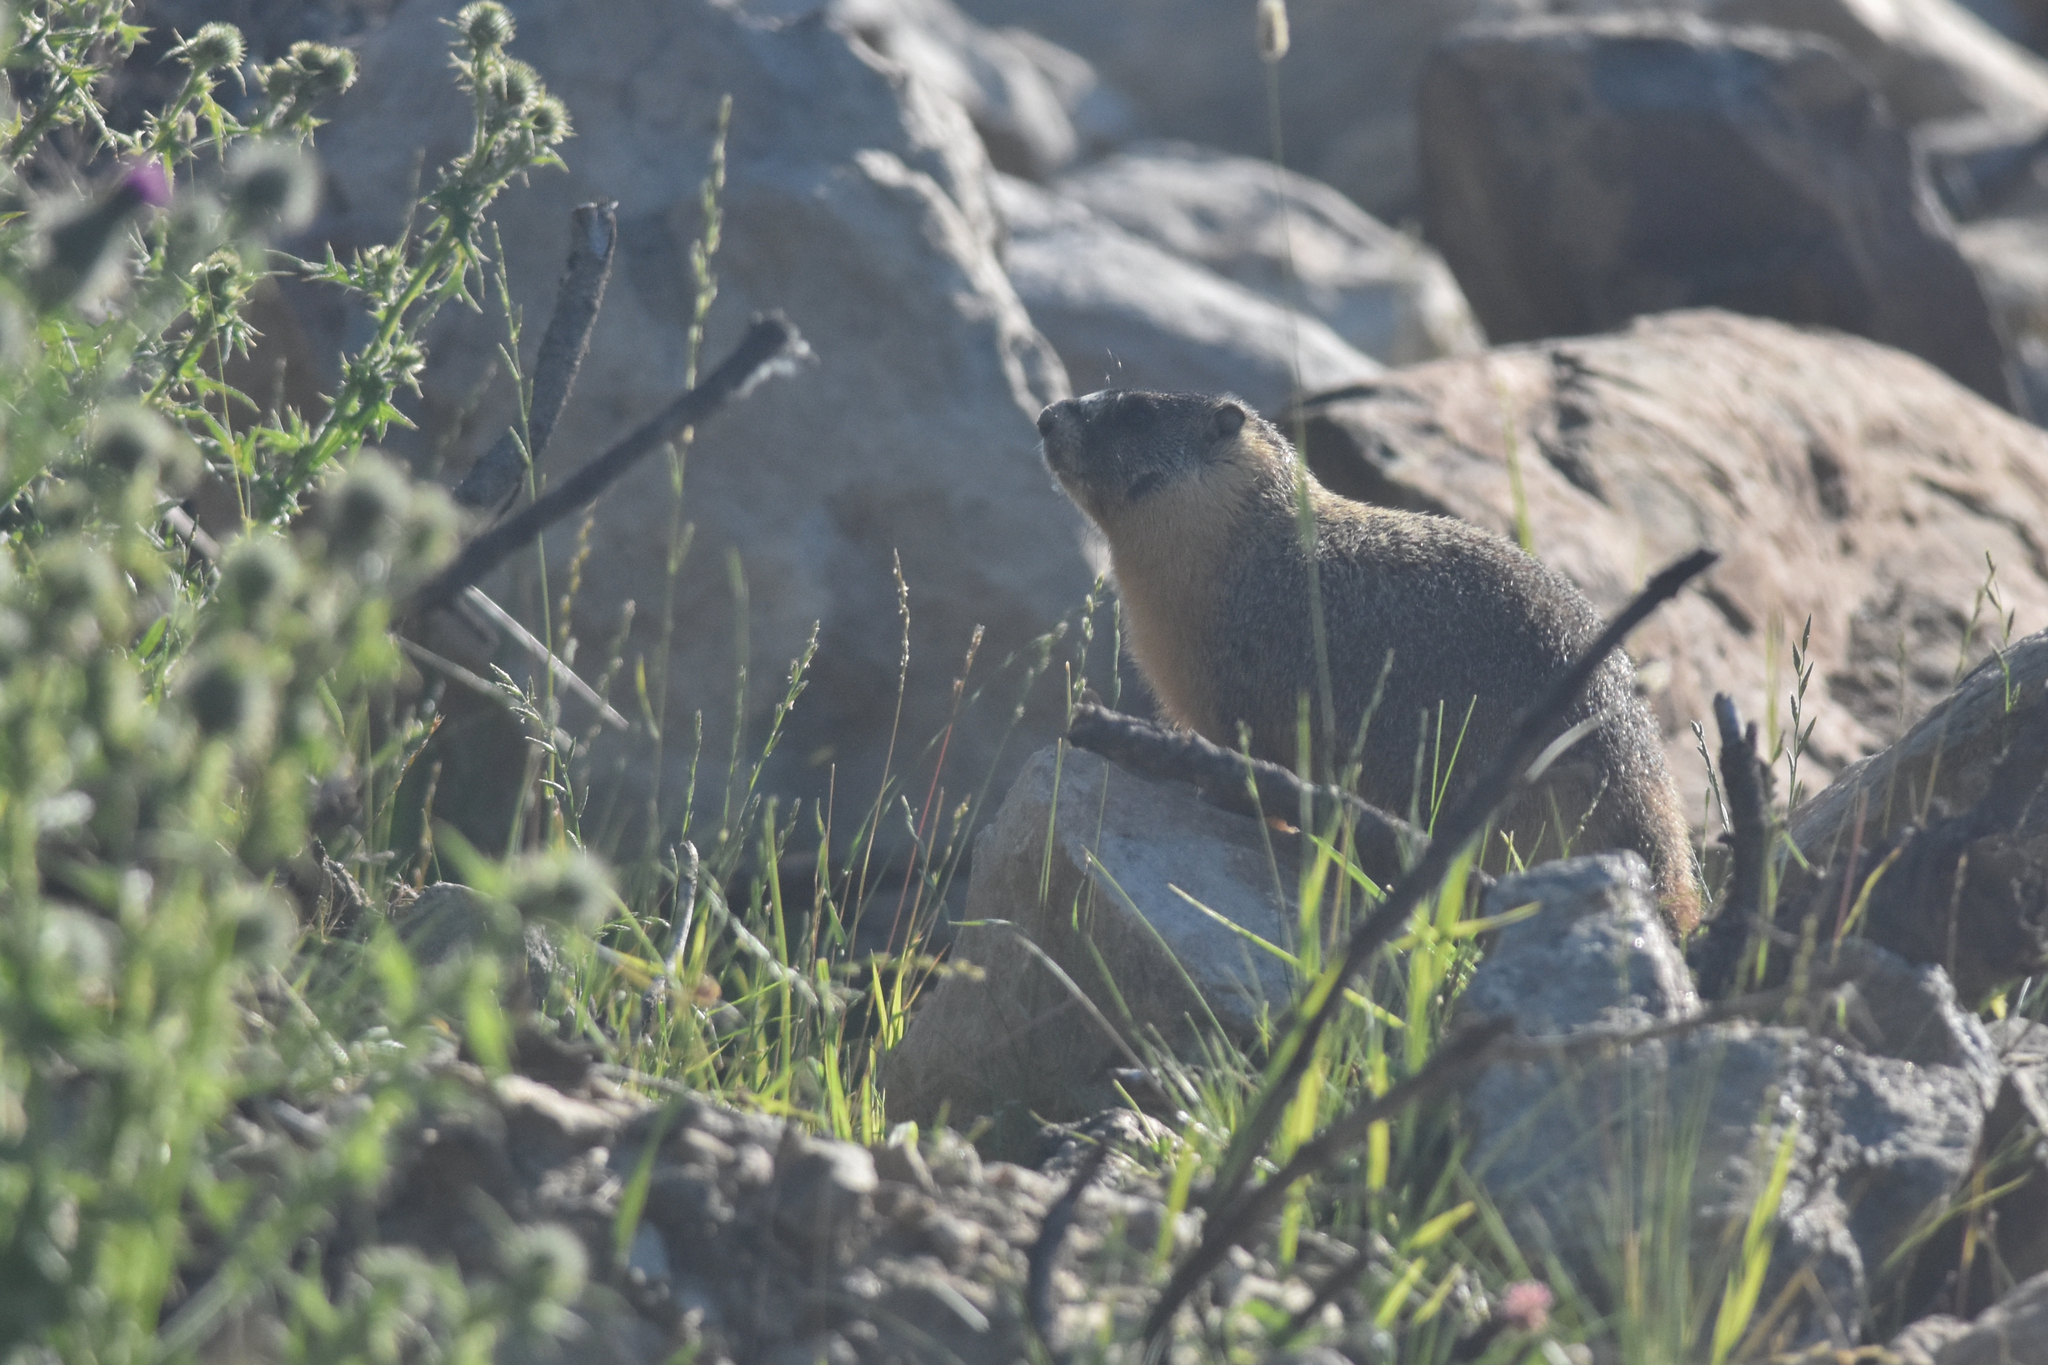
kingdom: Animalia
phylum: Chordata
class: Mammalia
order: Rodentia
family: Sciuridae
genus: Marmota
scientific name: Marmota flaviventris
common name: Yellow-bellied marmot
